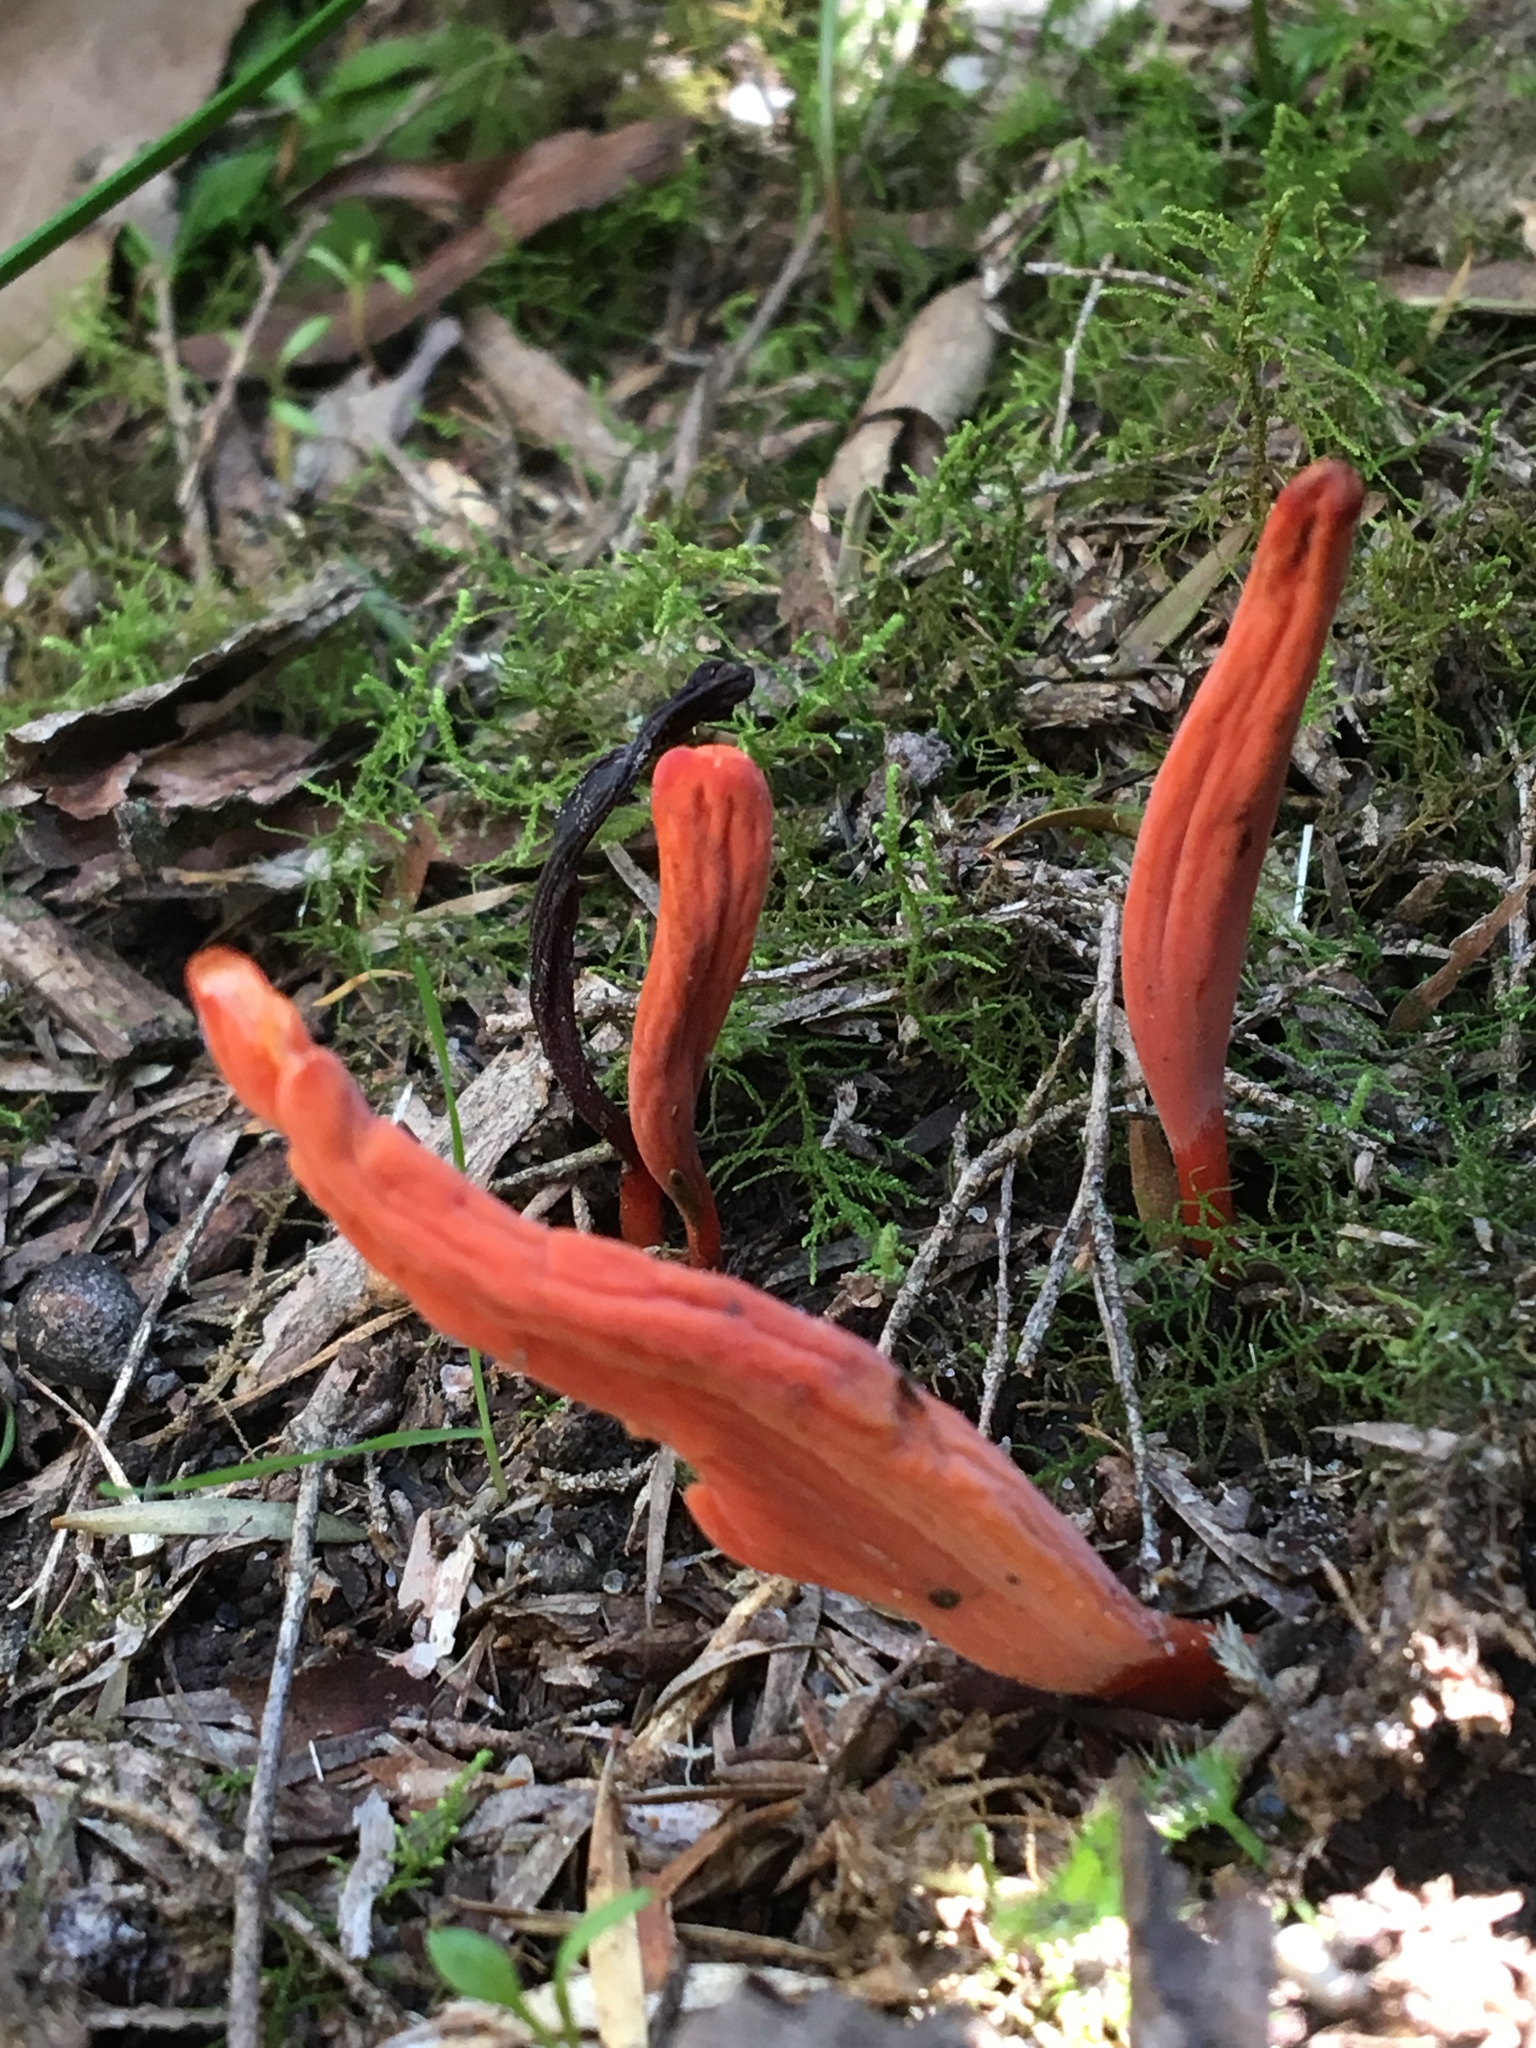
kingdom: Fungi
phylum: Basidiomycota
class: Agaricomycetes
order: Agaricales
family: Clavariaceae
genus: Clavulinopsis
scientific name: Clavulinopsis sulcata
